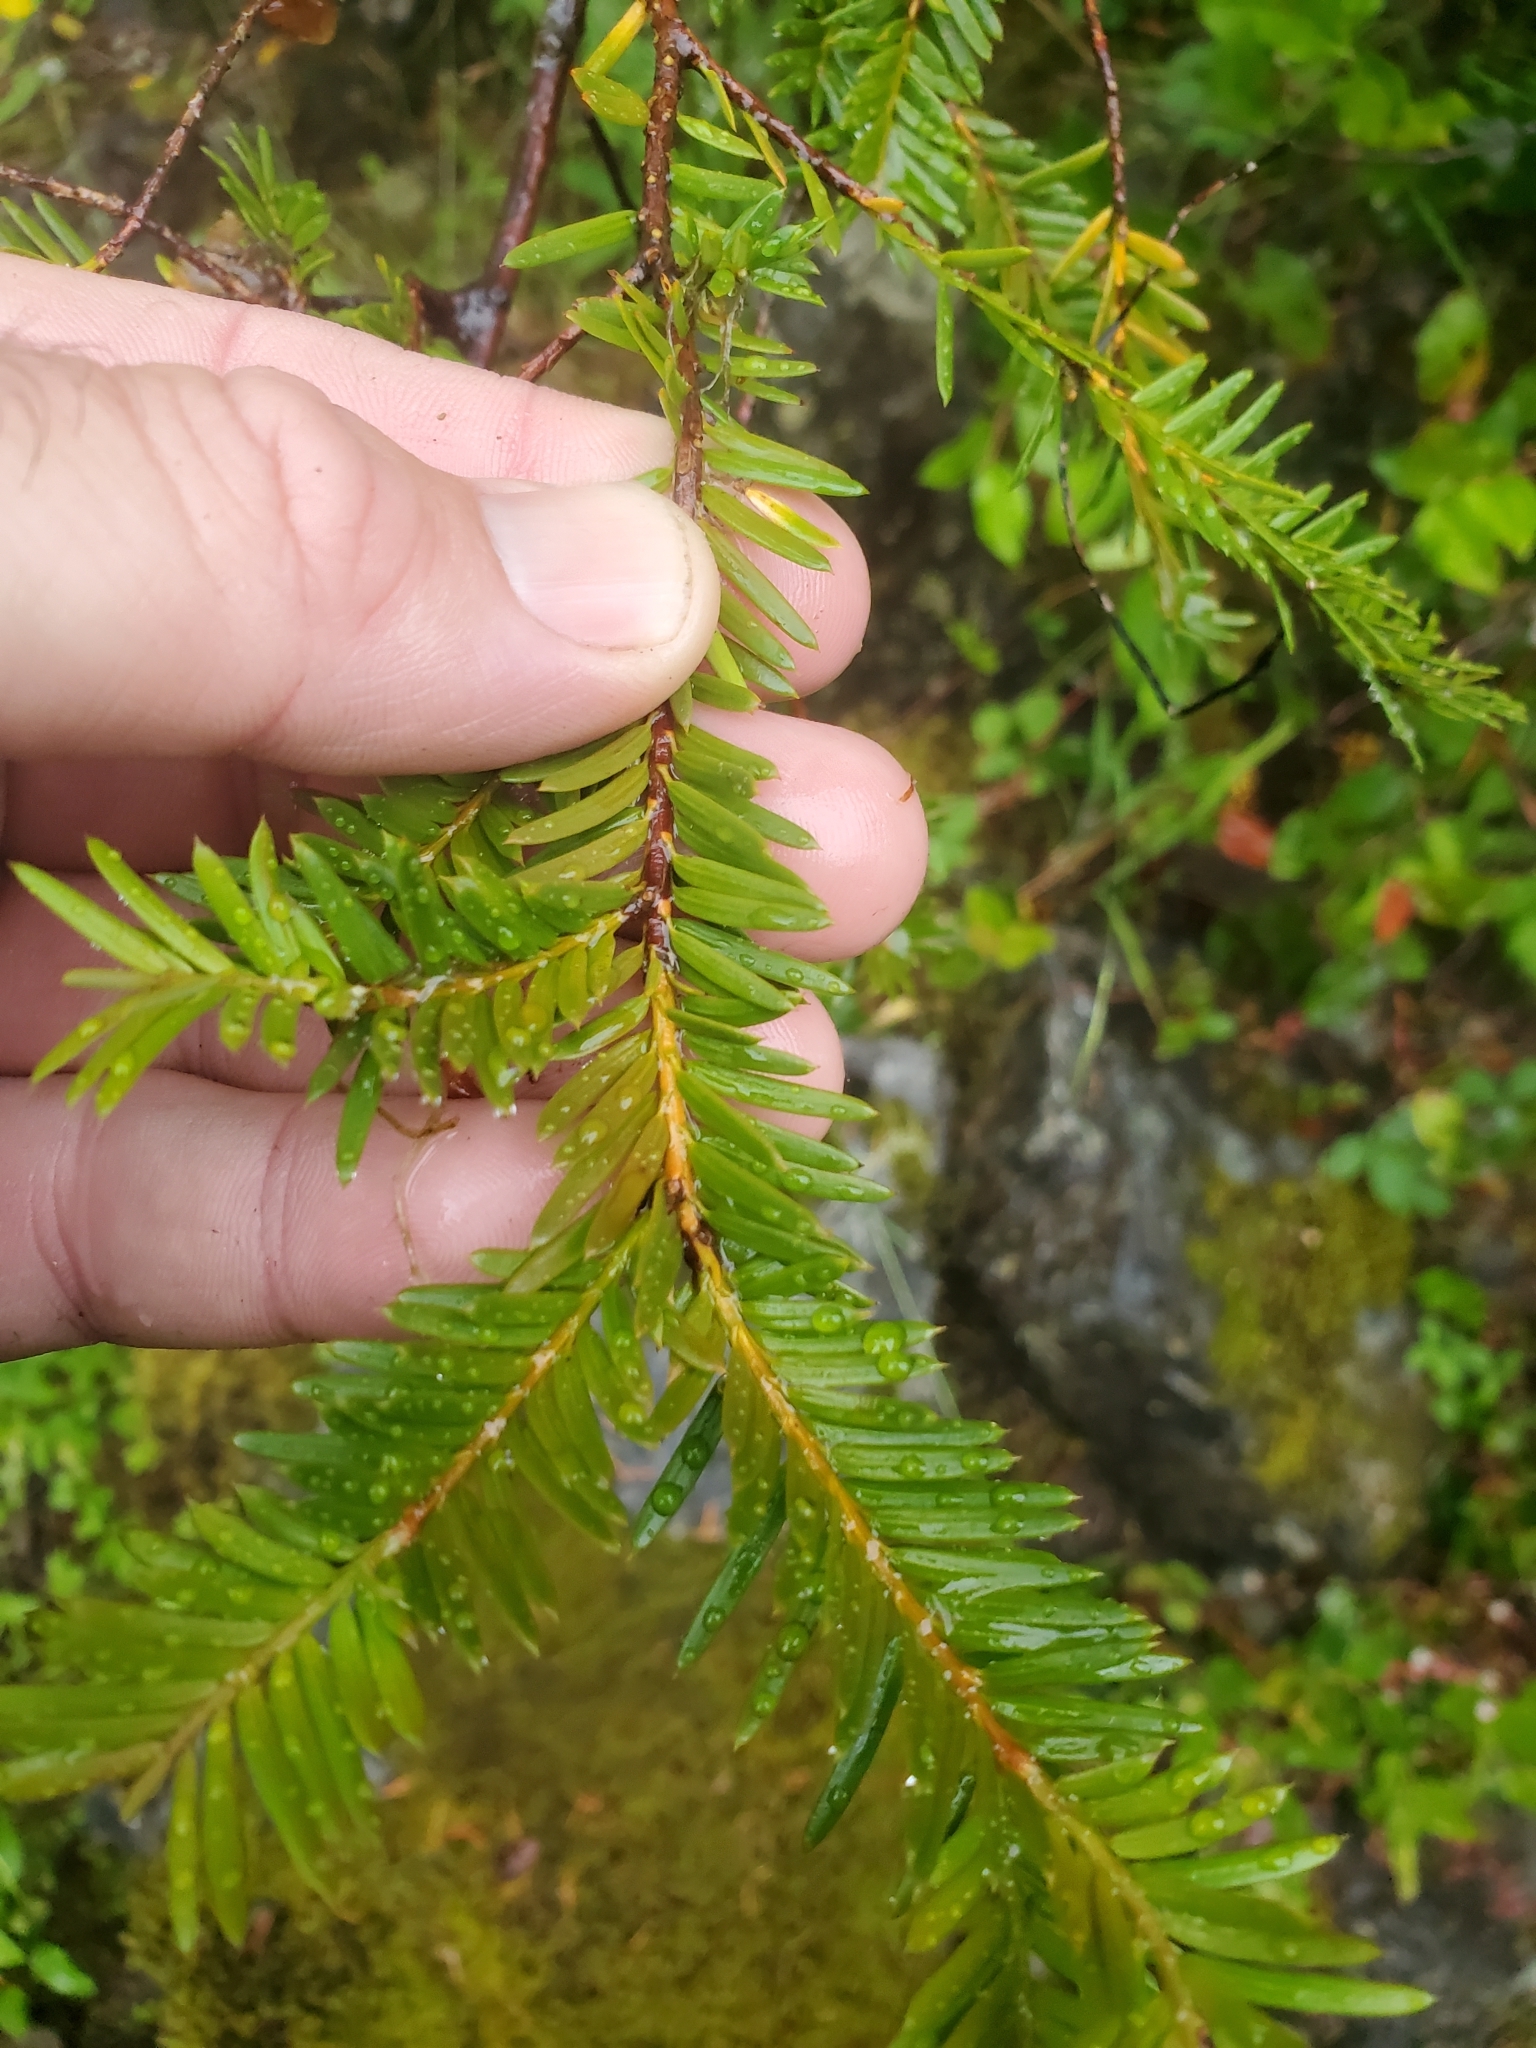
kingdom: Plantae
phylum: Tracheophyta
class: Pinopsida
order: Pinales
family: Taxaceae
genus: Taxus
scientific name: Taxus brevifolia
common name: Pacific yew
